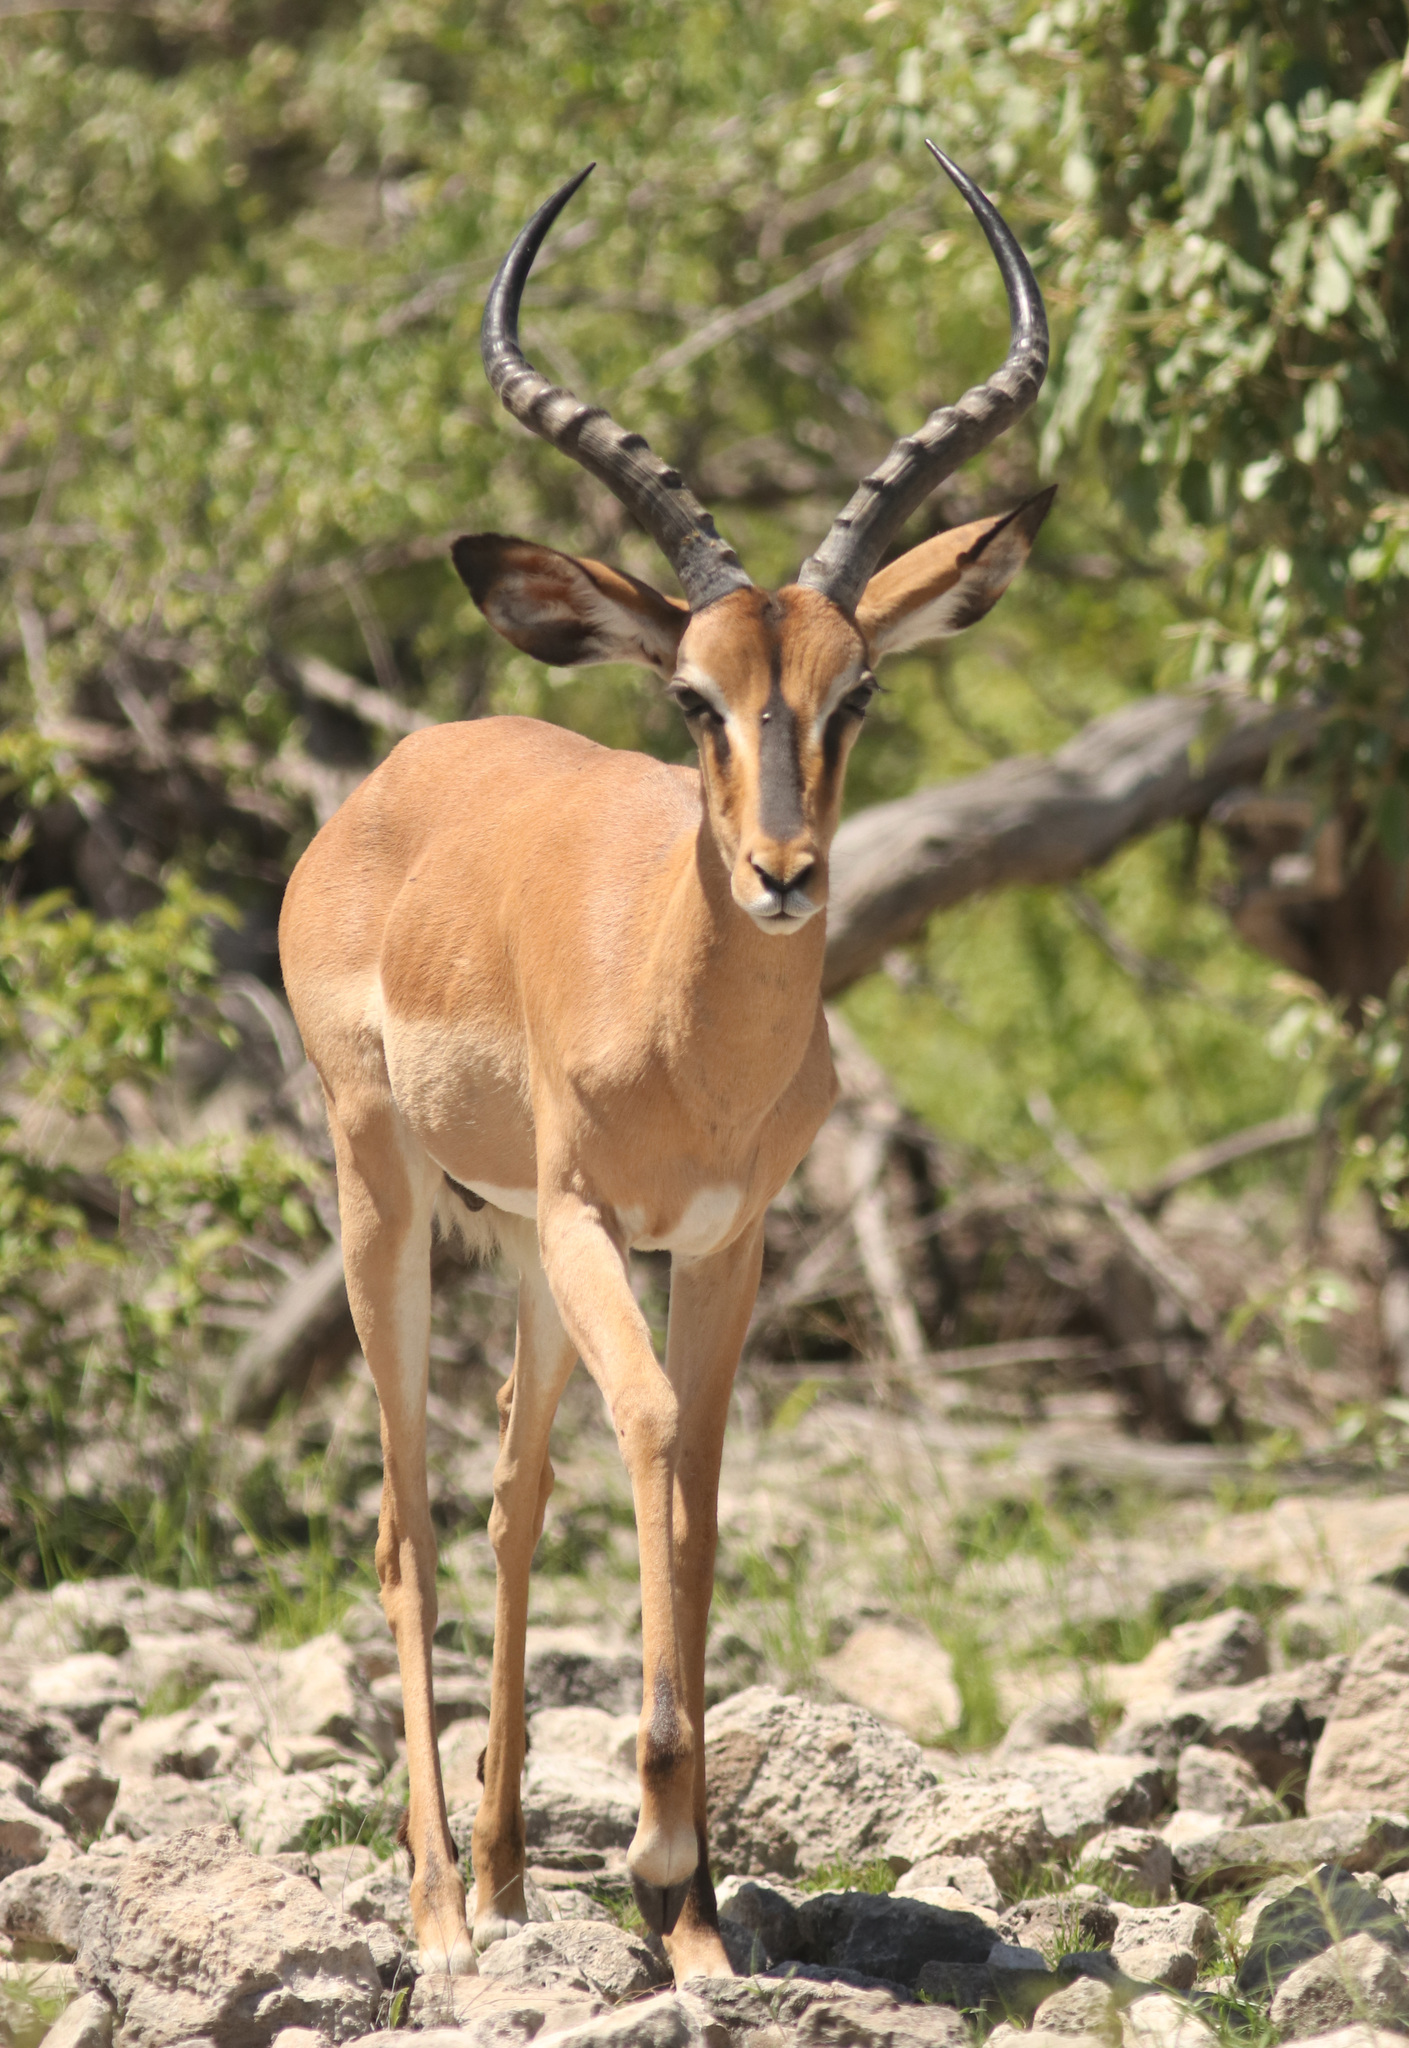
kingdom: Animalia
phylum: Chordata
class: Mammalia
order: Artiodactyla
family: Bovidae
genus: Aepyceros
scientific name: Aepyceros melampus
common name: Impala
